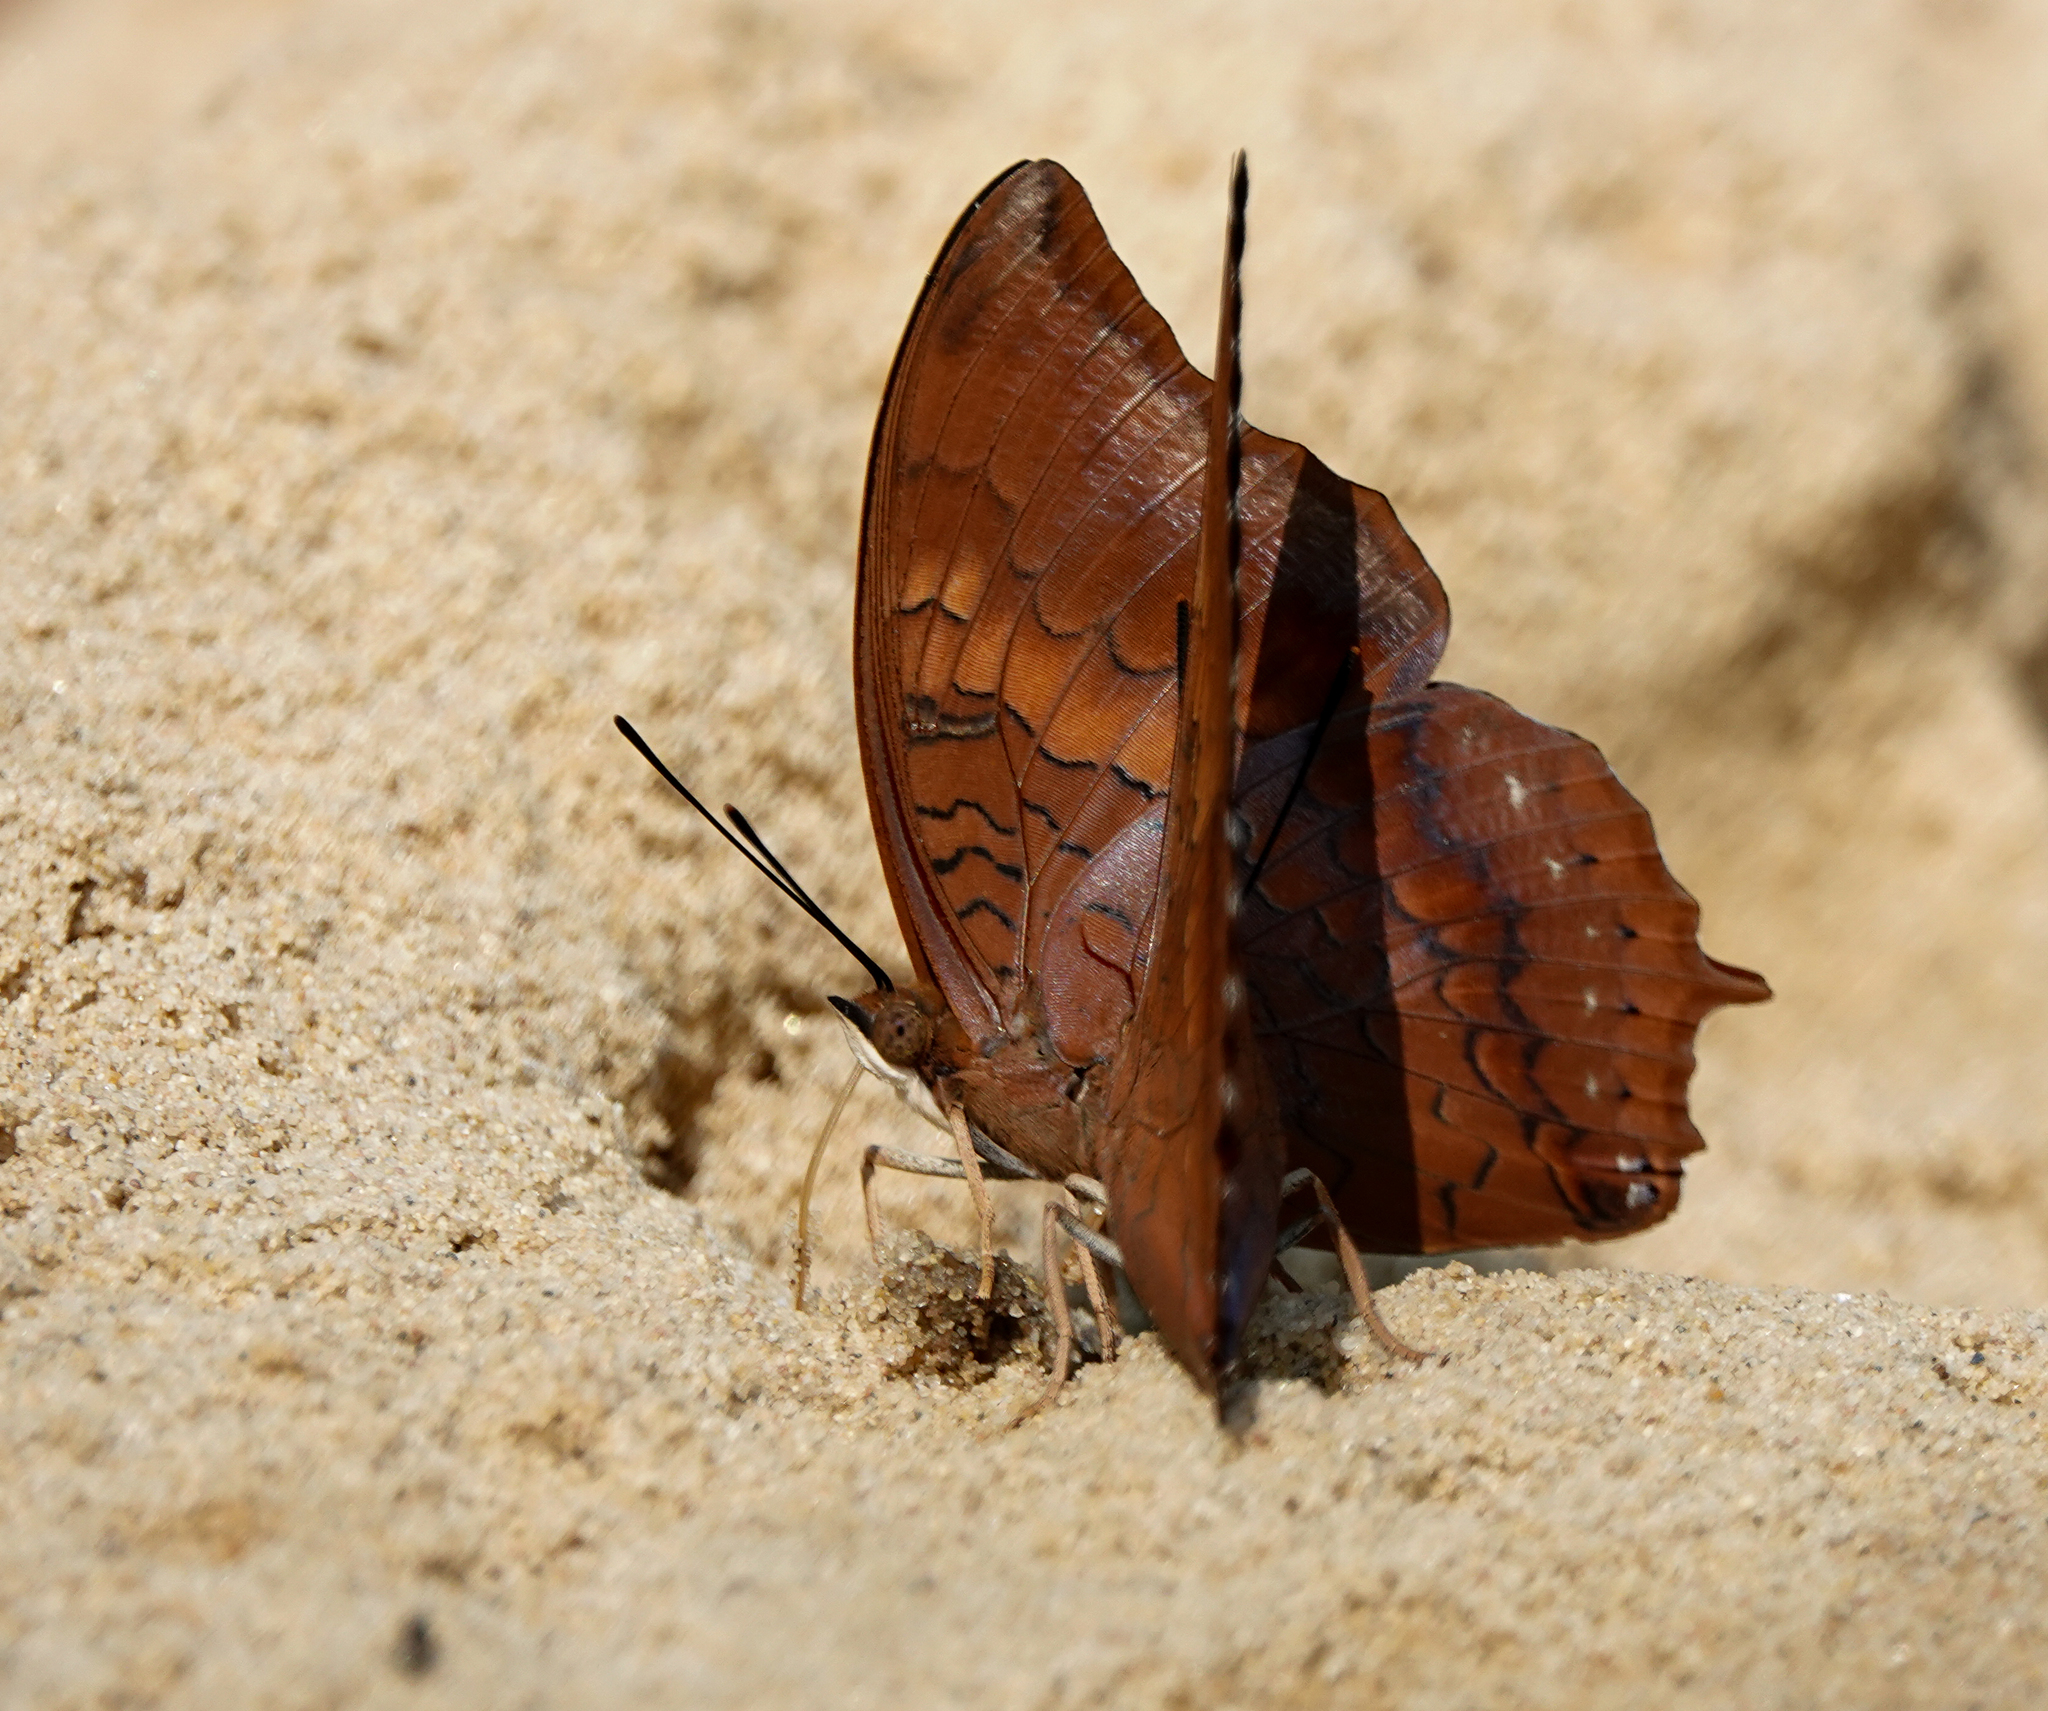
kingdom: Animalia
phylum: Arthropoda
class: Insecta
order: Lepidoptera
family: Nymphalidae
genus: Charaxes
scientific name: Charaxes bernardus
